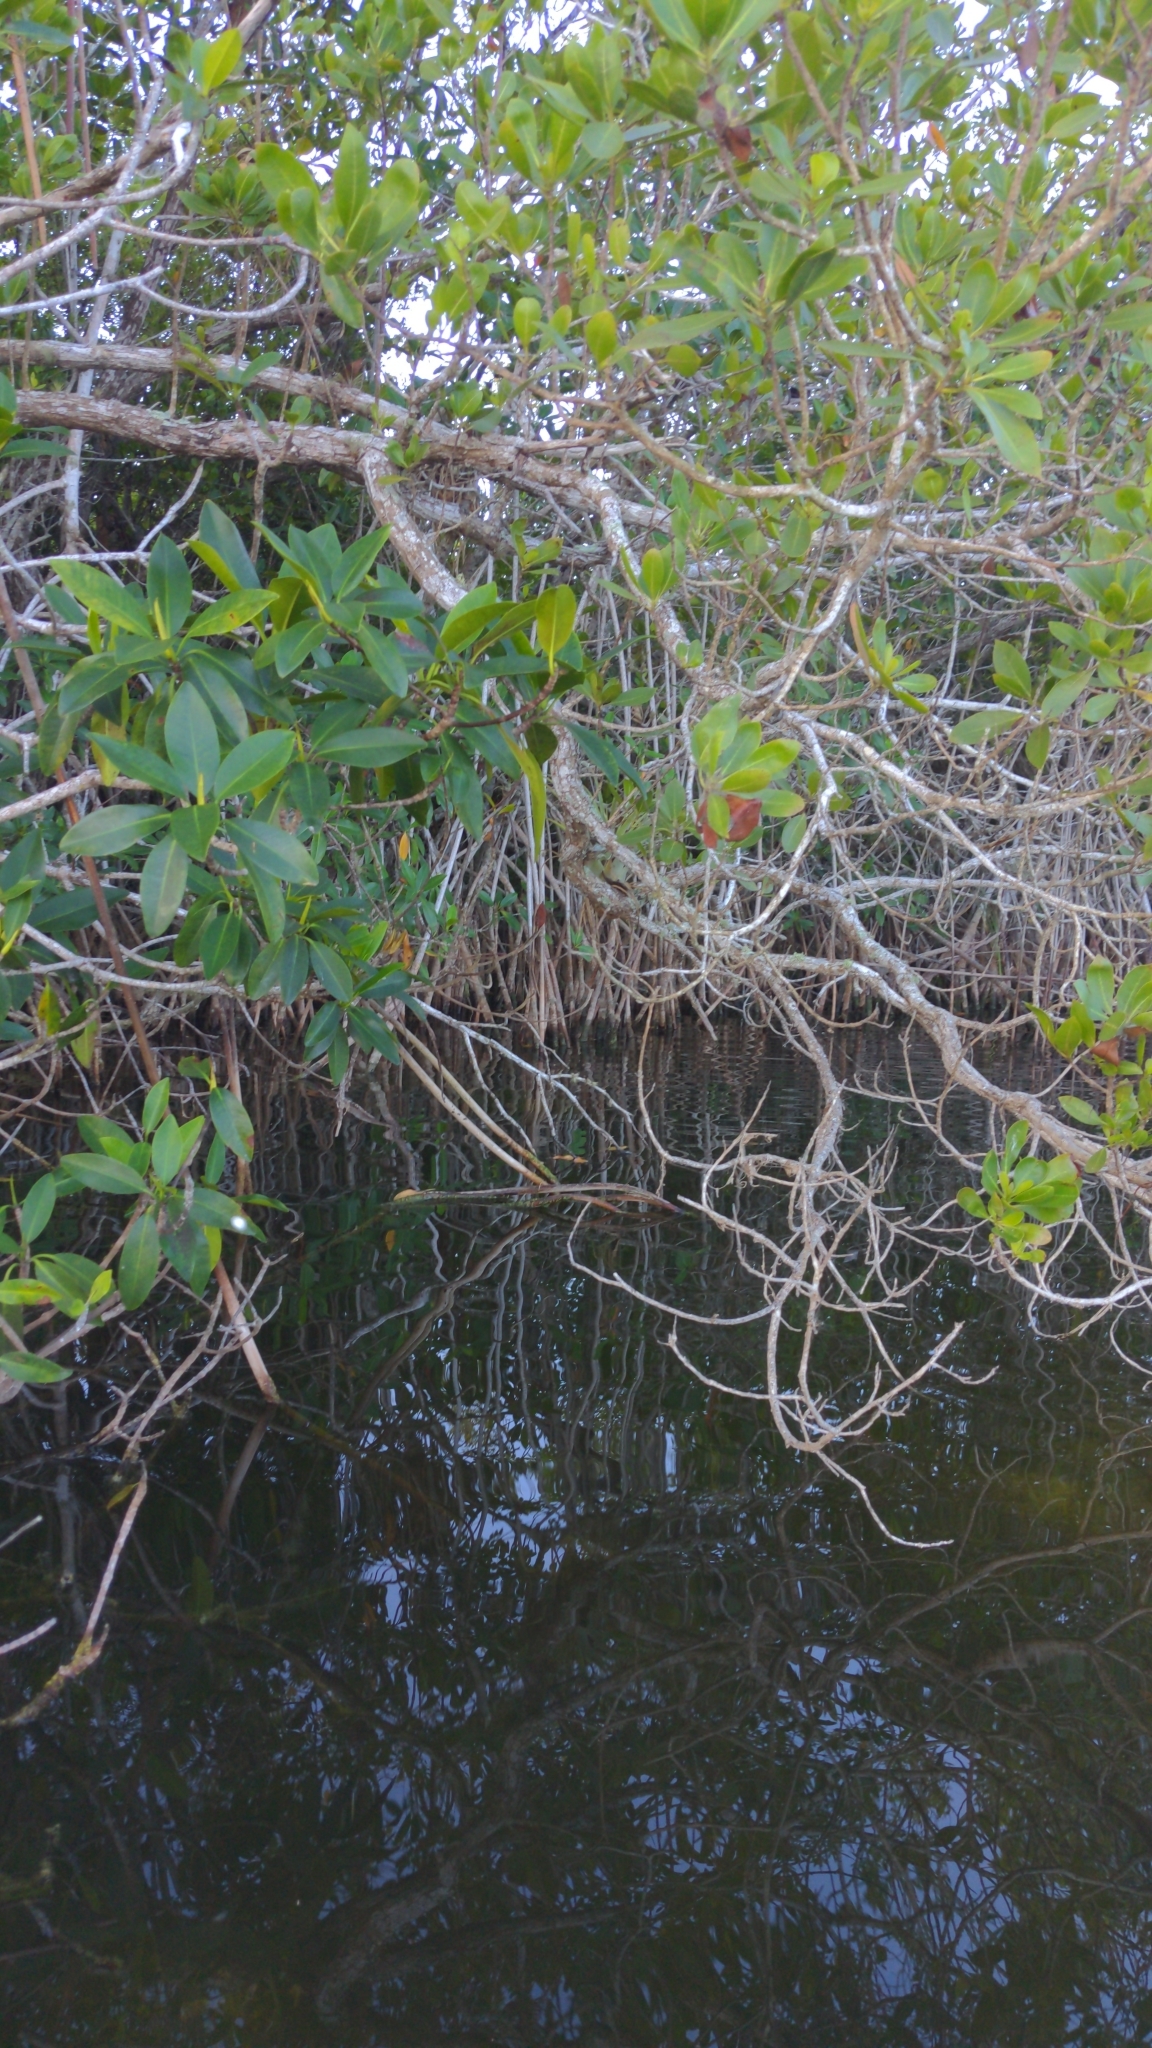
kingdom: Plantae
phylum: Tracheophyta
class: Magnoliopsida
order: Malpighiales
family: Rhizophoraceae
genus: Rhizophora
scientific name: Rhizophora mangle
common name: Red mangrove
